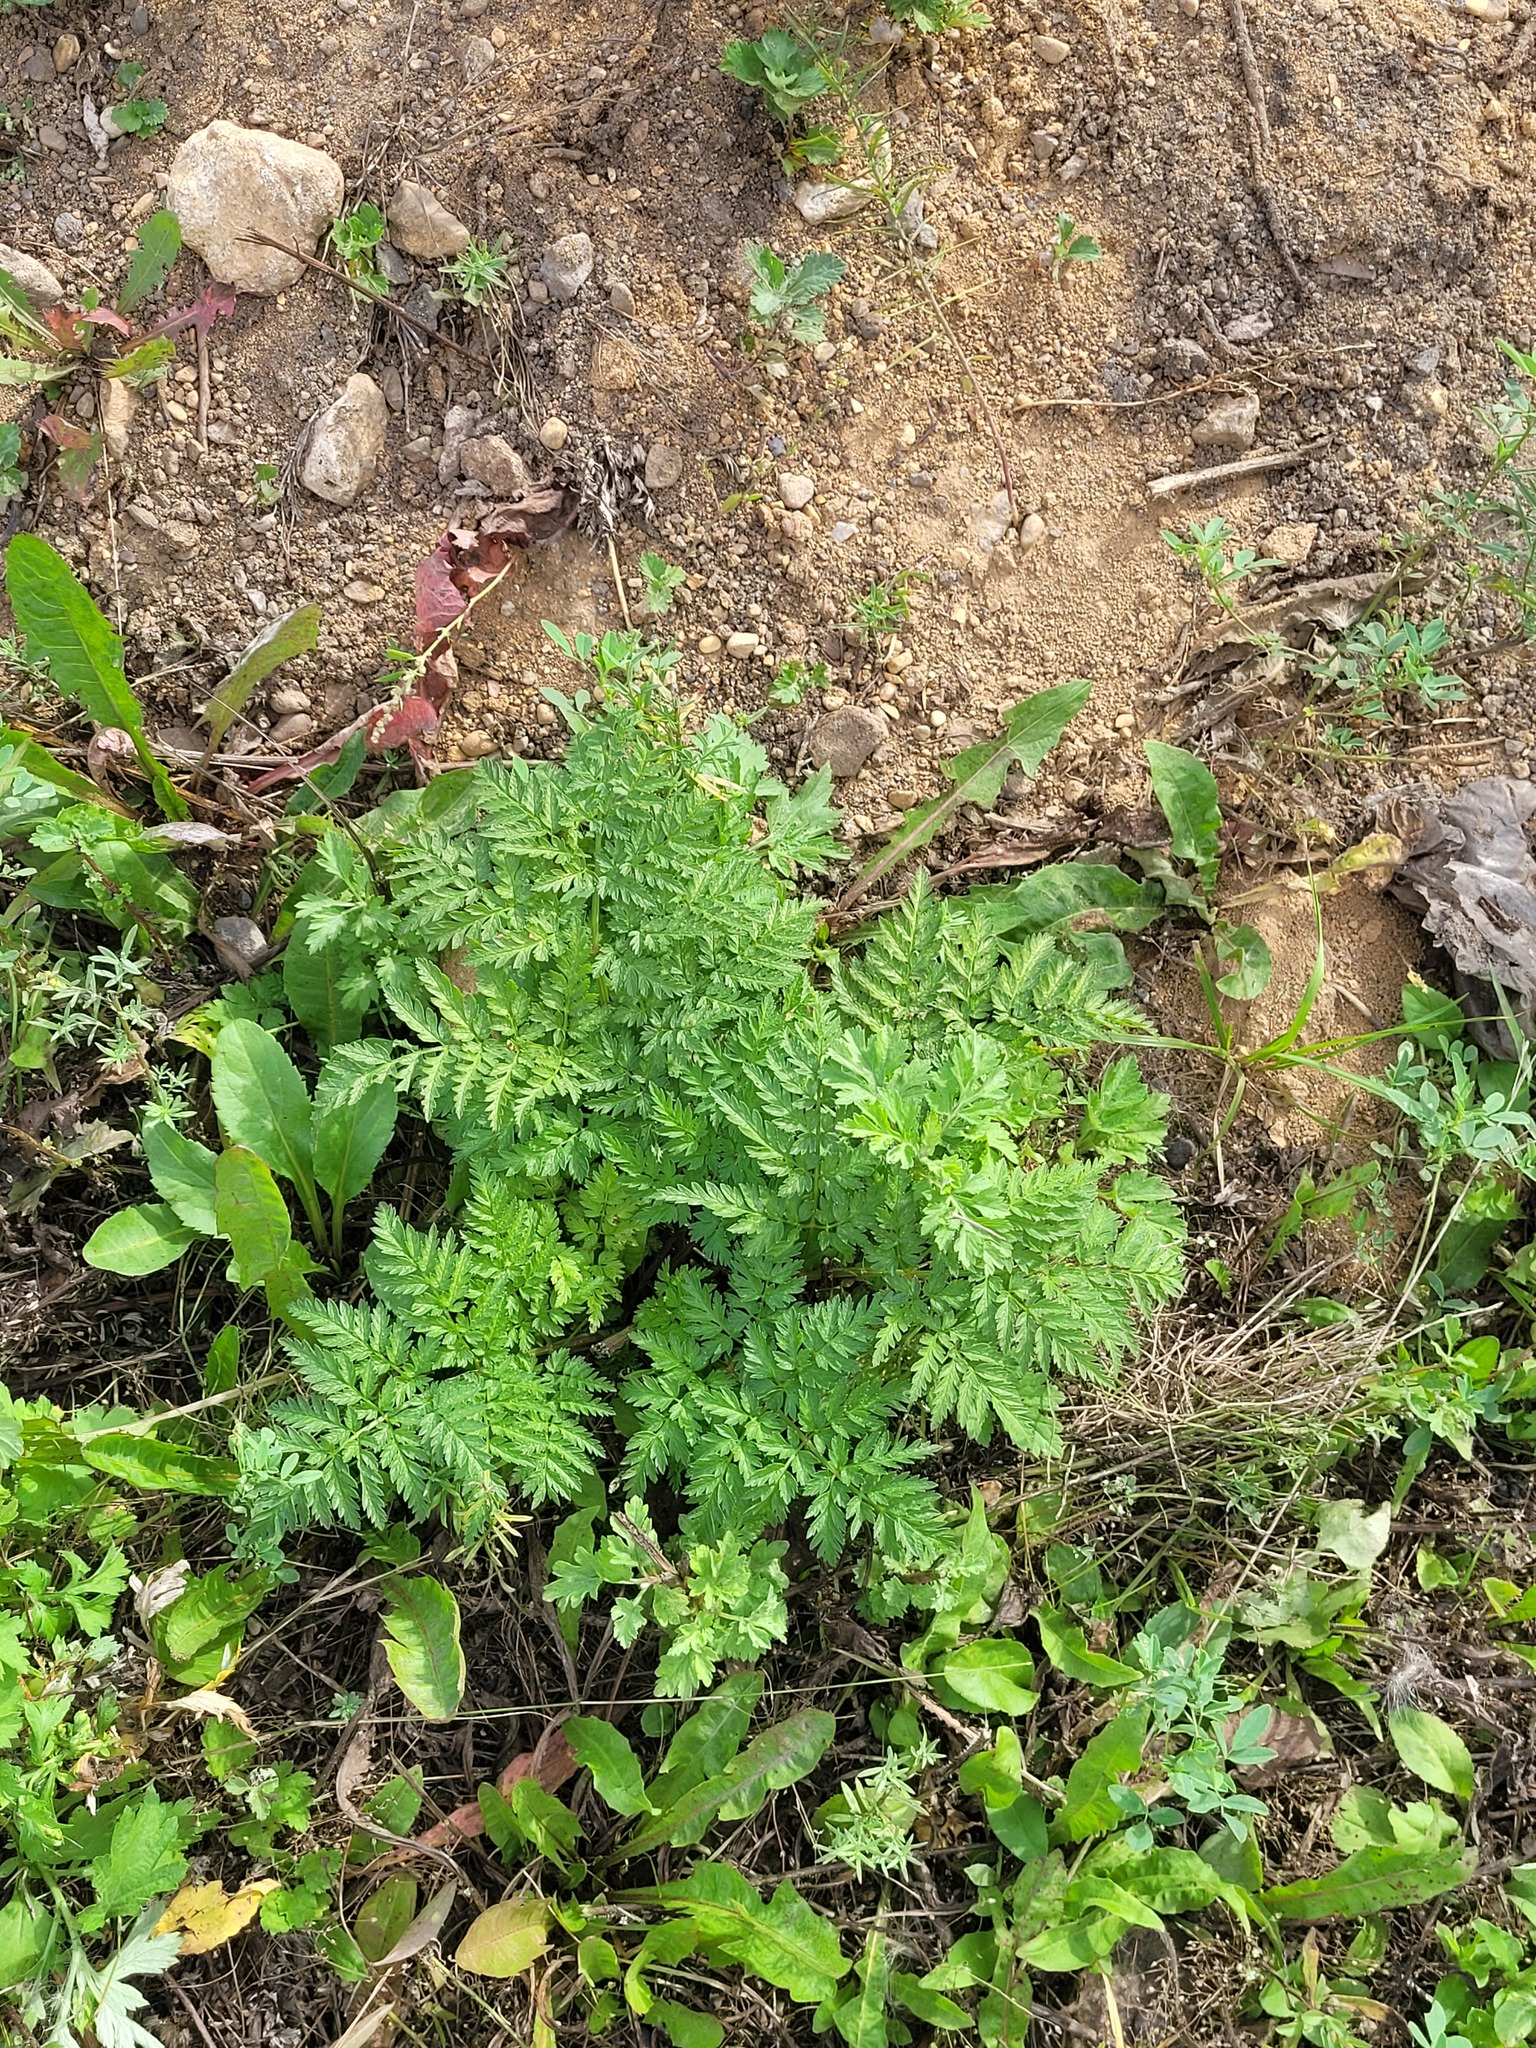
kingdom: Plantae
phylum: Tracheophyta
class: Magnoliopsida
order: Apiales
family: Apiaceae
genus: Anthriscus
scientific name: Anthriscus sylvestris
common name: Cow parsley
